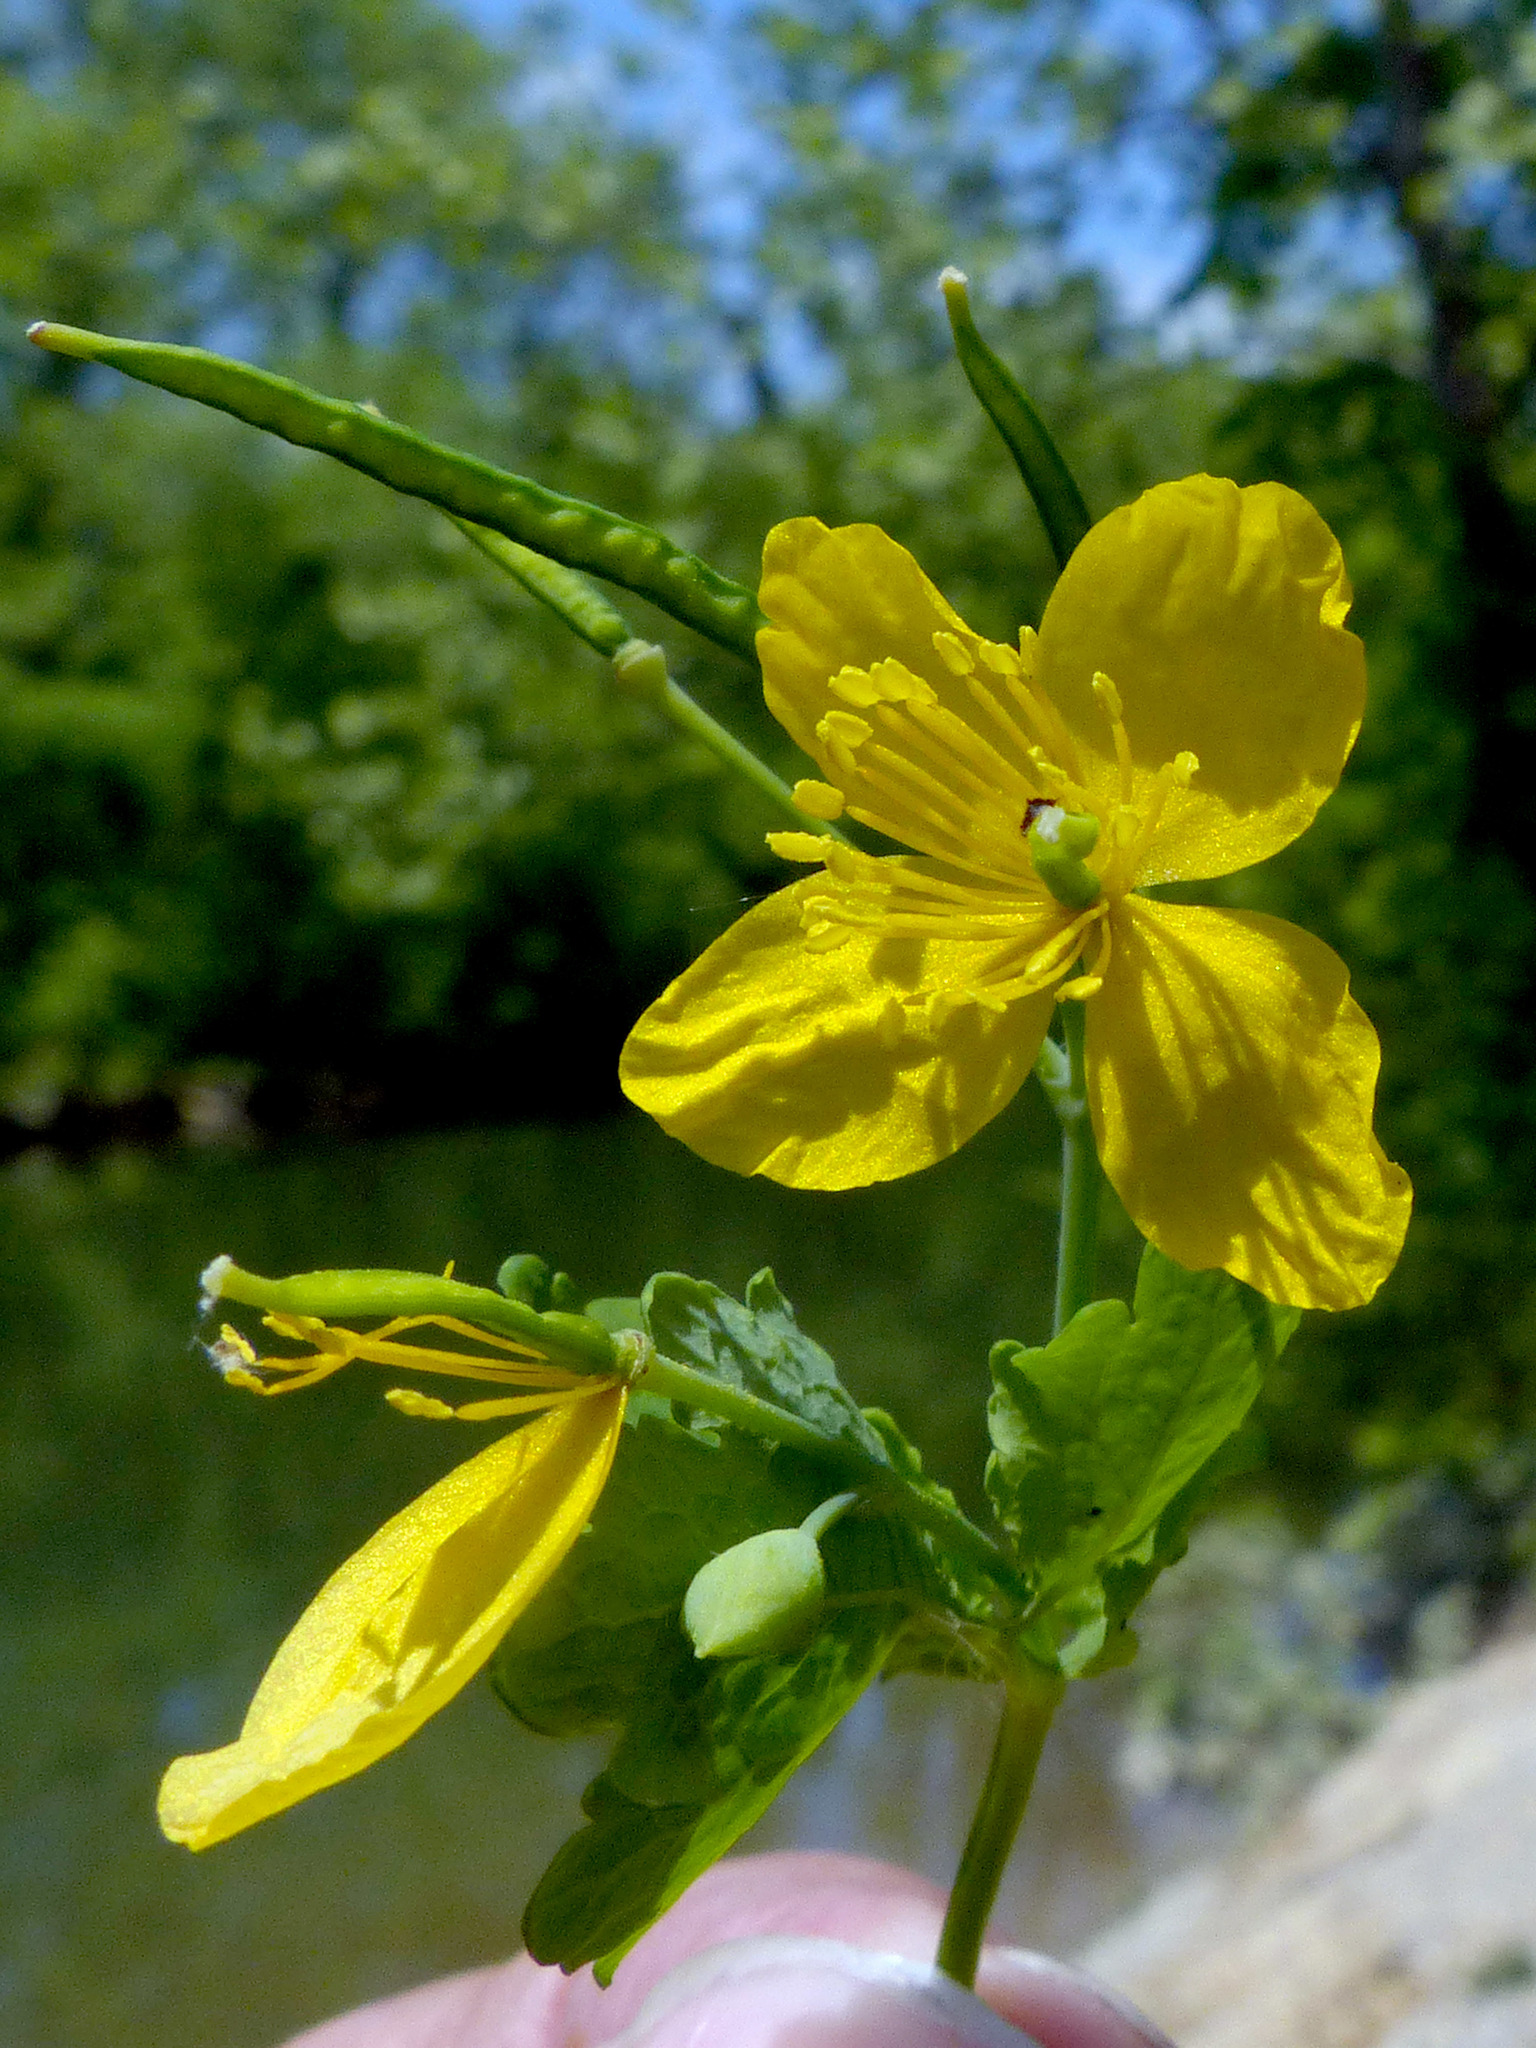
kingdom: Plantae
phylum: Tracheophyta
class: Magnoliopsida
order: Ranunculales
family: Papaveraceae
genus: Chelidonium
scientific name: Chelidonium majus
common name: Greater celandine
